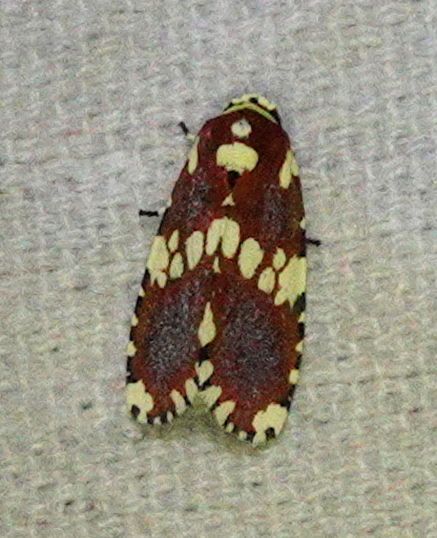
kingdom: Animalia
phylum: Arthropoda
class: Insecta
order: Lepidoptera
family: Noctuidae
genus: Yepcalphis
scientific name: Yepcalphis dilectissima
